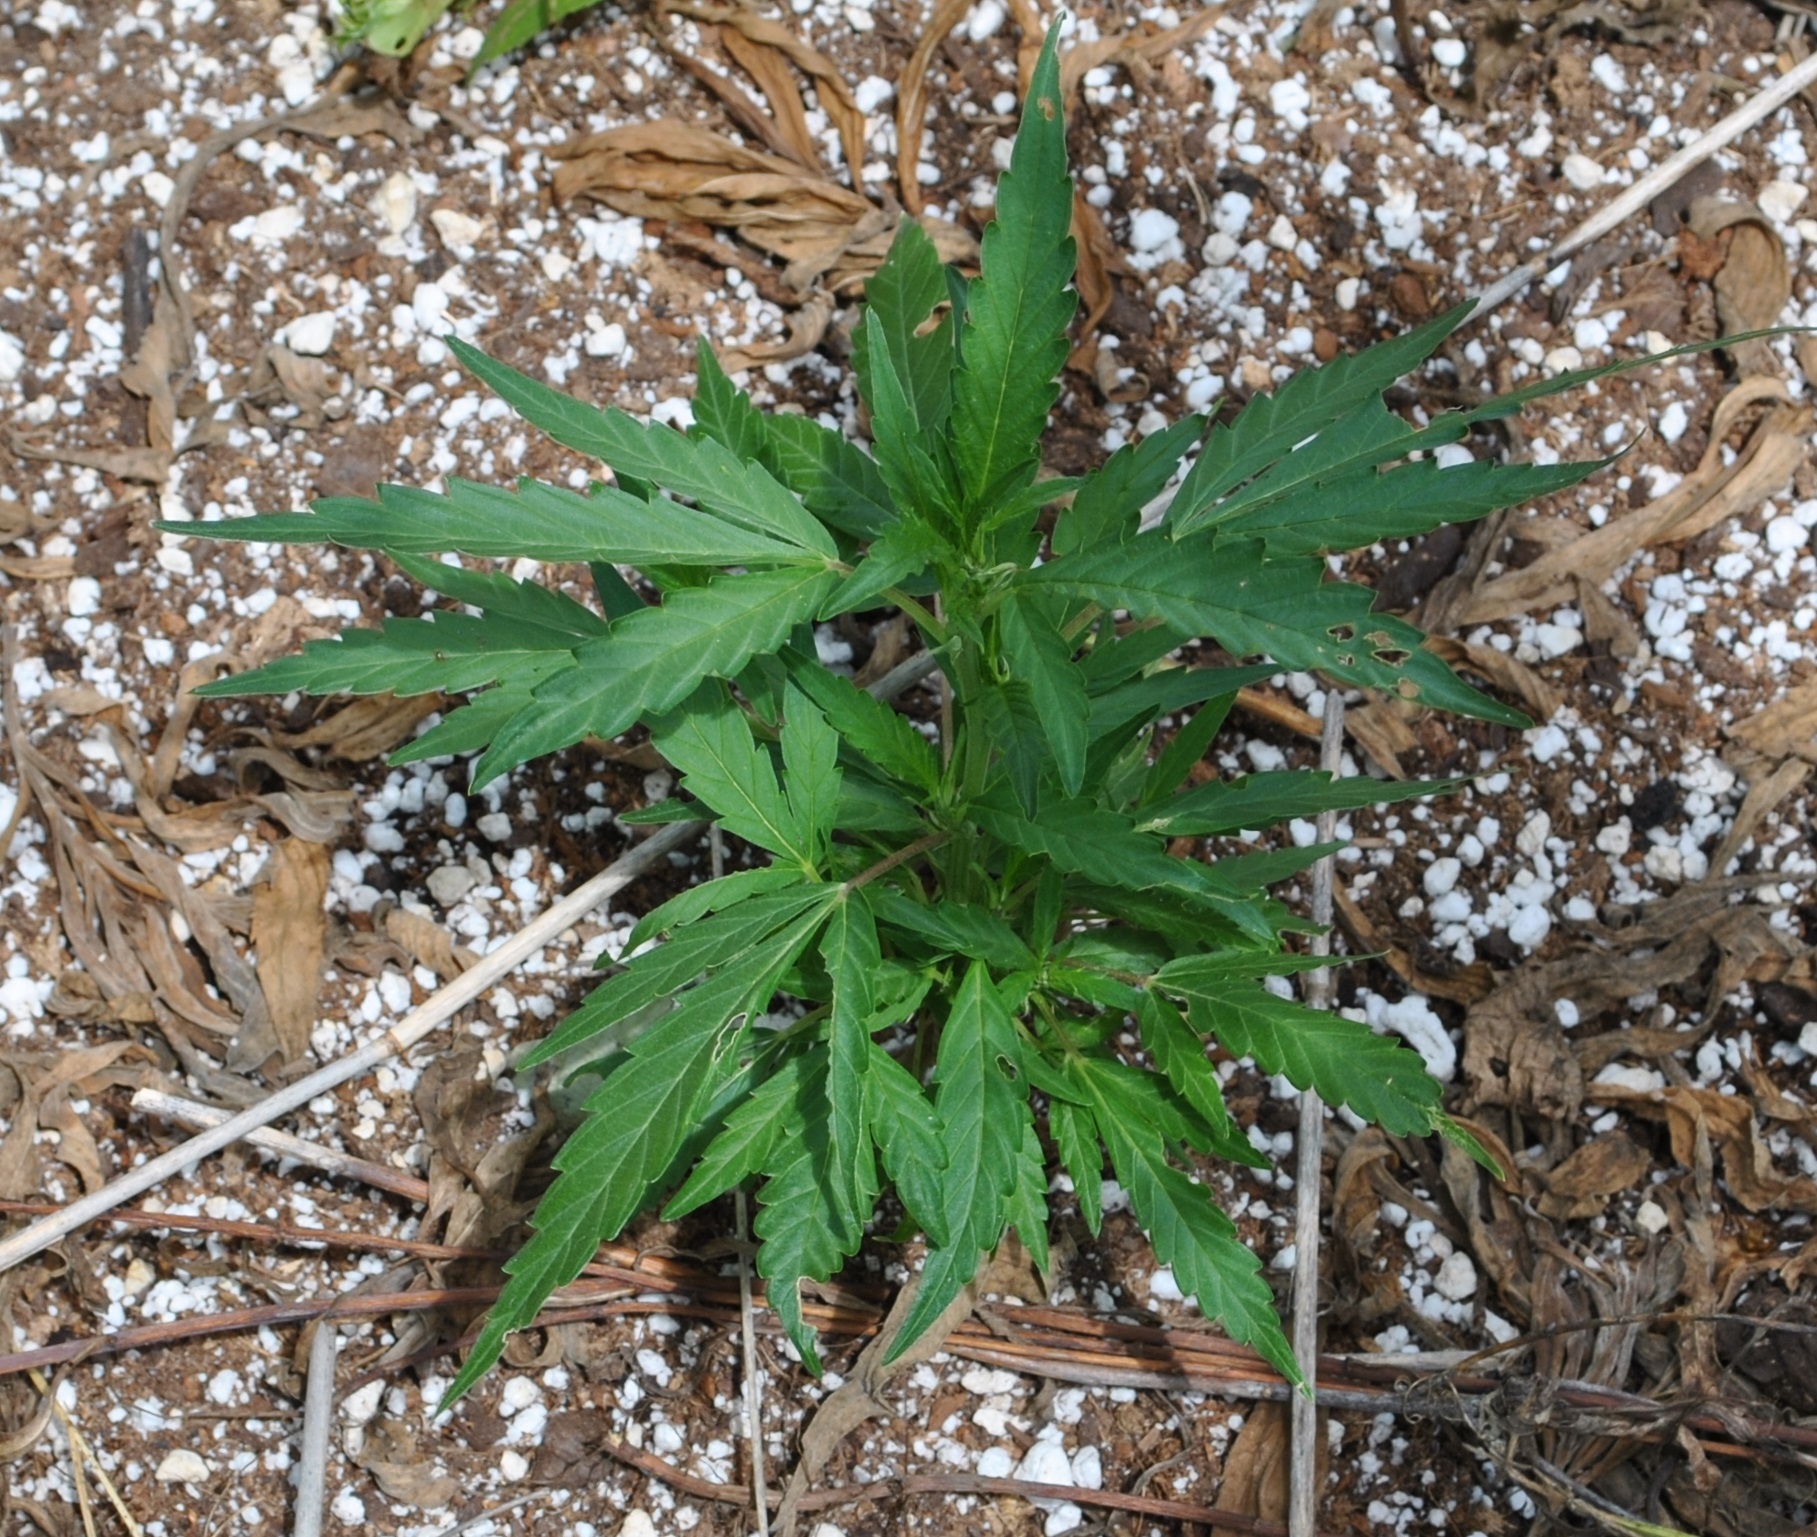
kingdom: Plantae
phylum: Tracheophyta
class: Magnoliopsida
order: Rosales
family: Cannabaceae
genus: Cannabis
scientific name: Cannabis sativa
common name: Hemp
